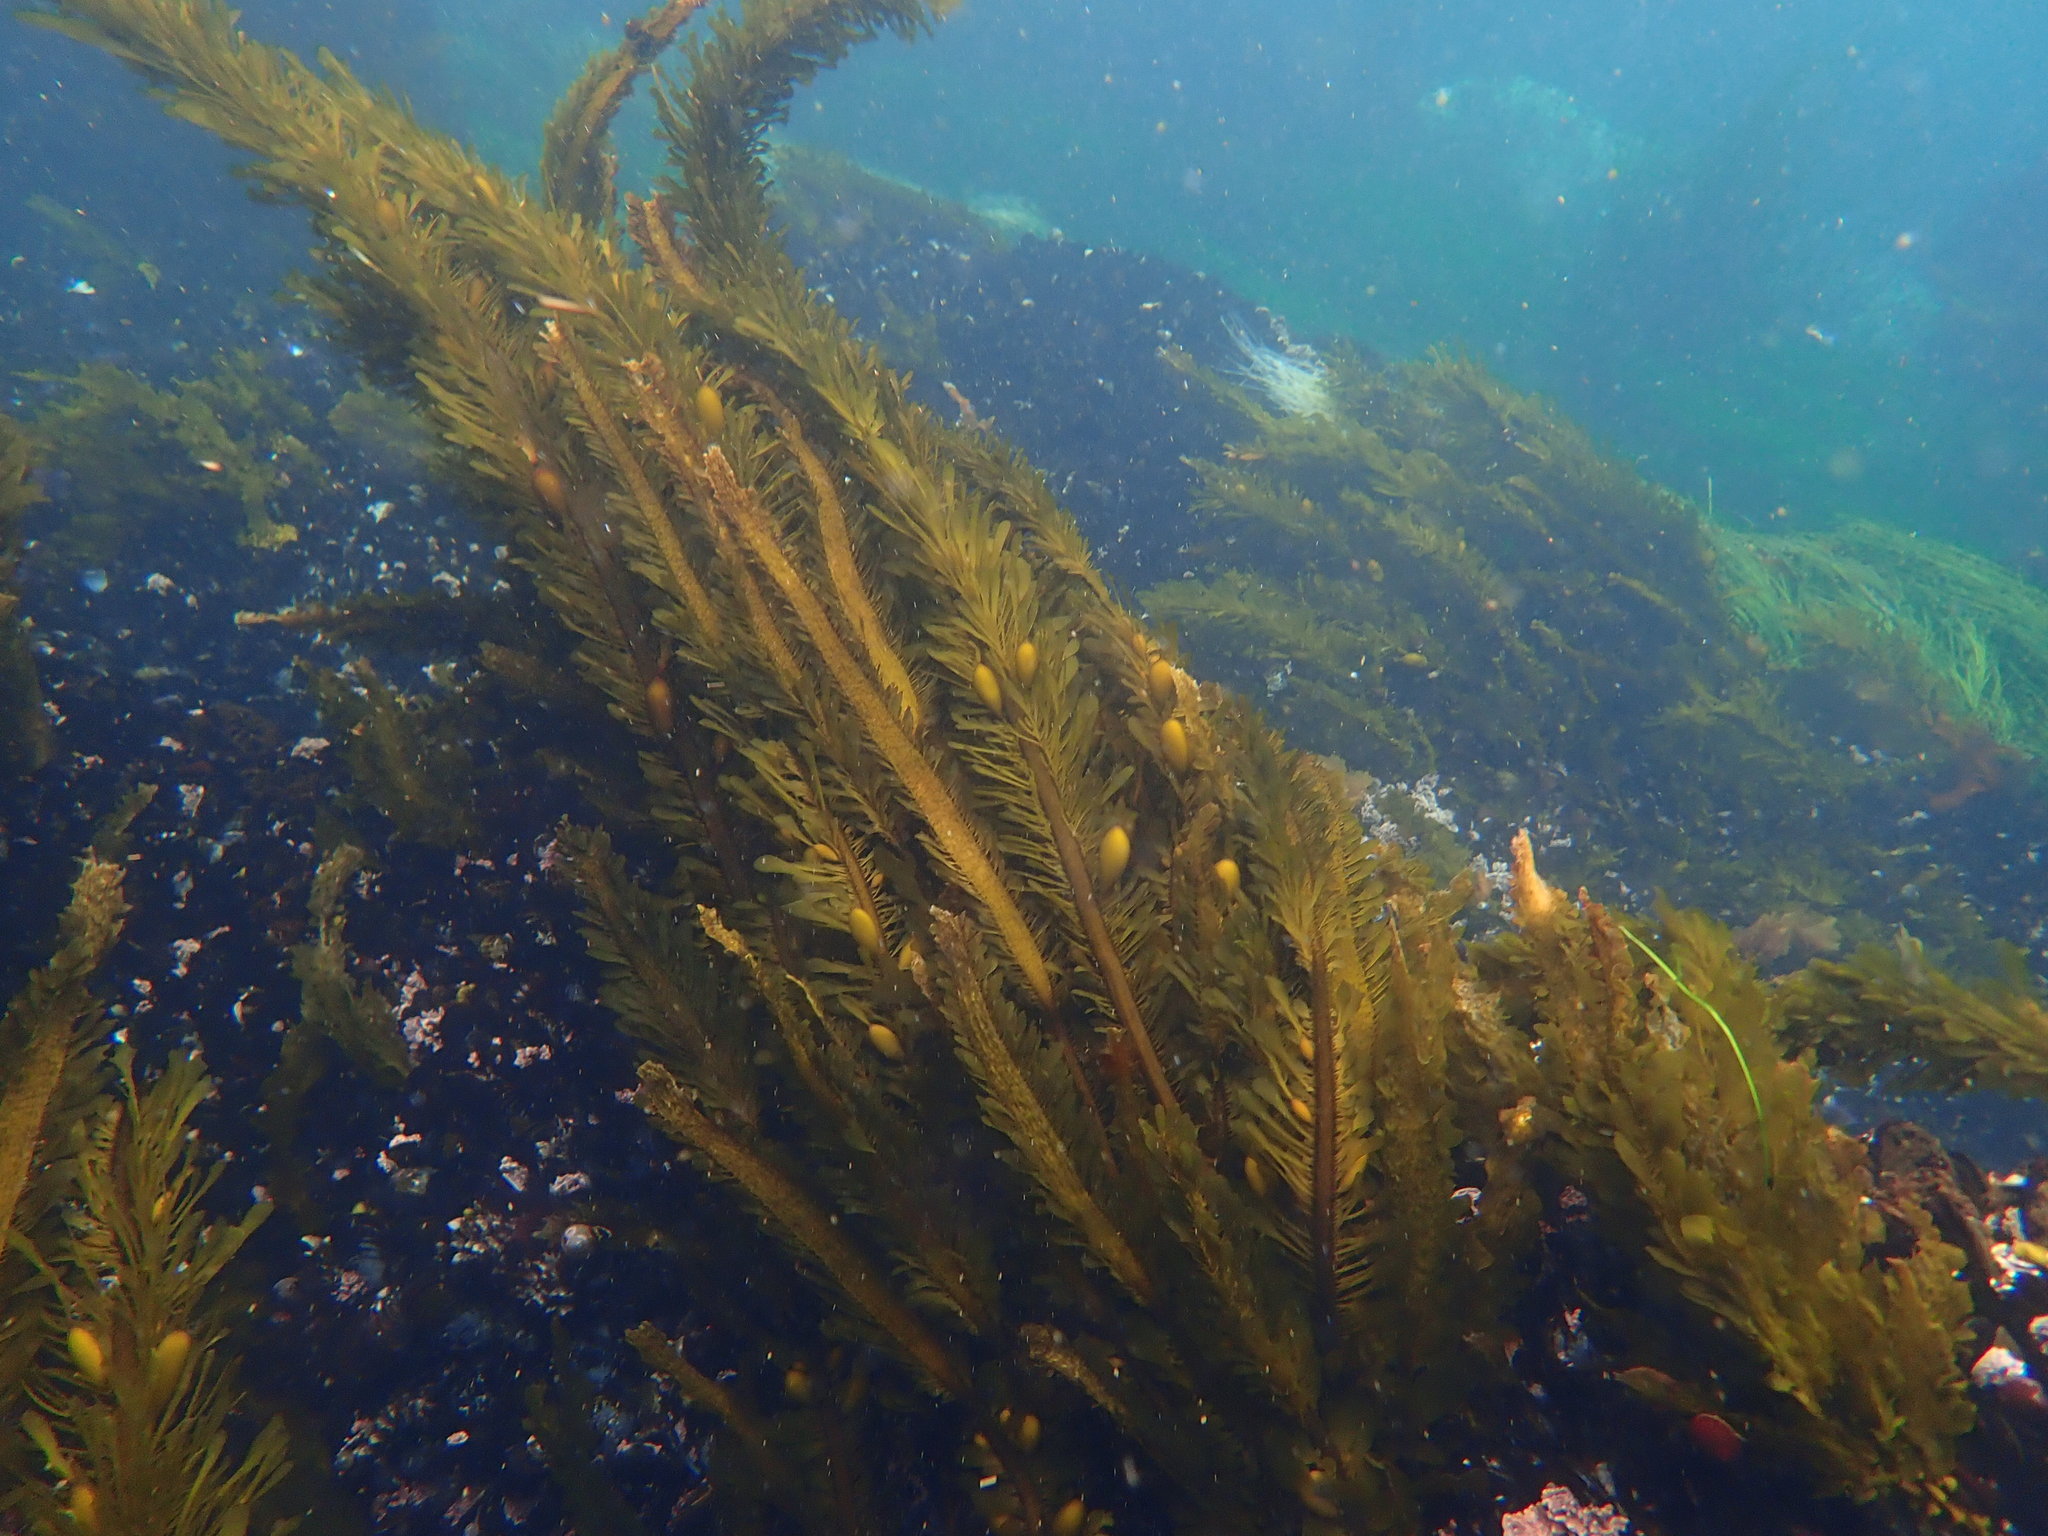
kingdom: Chromista
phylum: Ochrophyta
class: Phaeophyceae
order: Laminariales
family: Lessoniaceae
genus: Egregia
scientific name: Egregia menziesii
